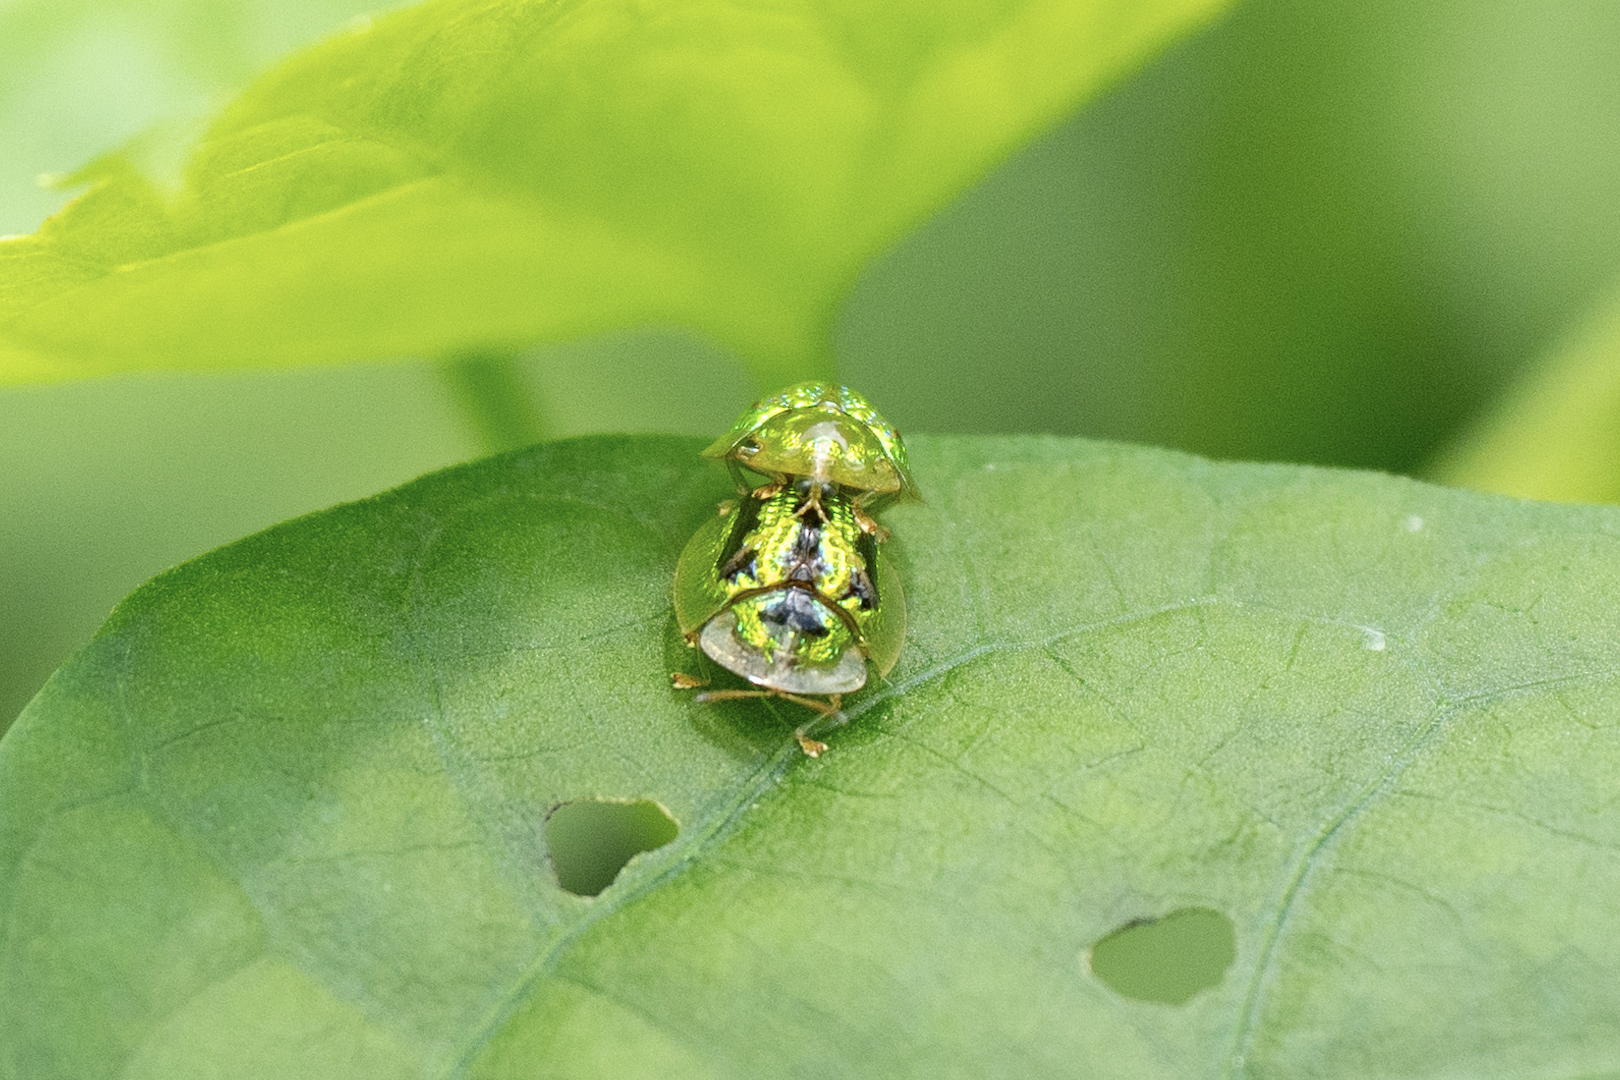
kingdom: Animalia
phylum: Arthropoda
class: Insecta
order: Coleoptera
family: Chrysomelidae
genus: Cassida
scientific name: Cassida circumdata
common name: Tortoise beetle
